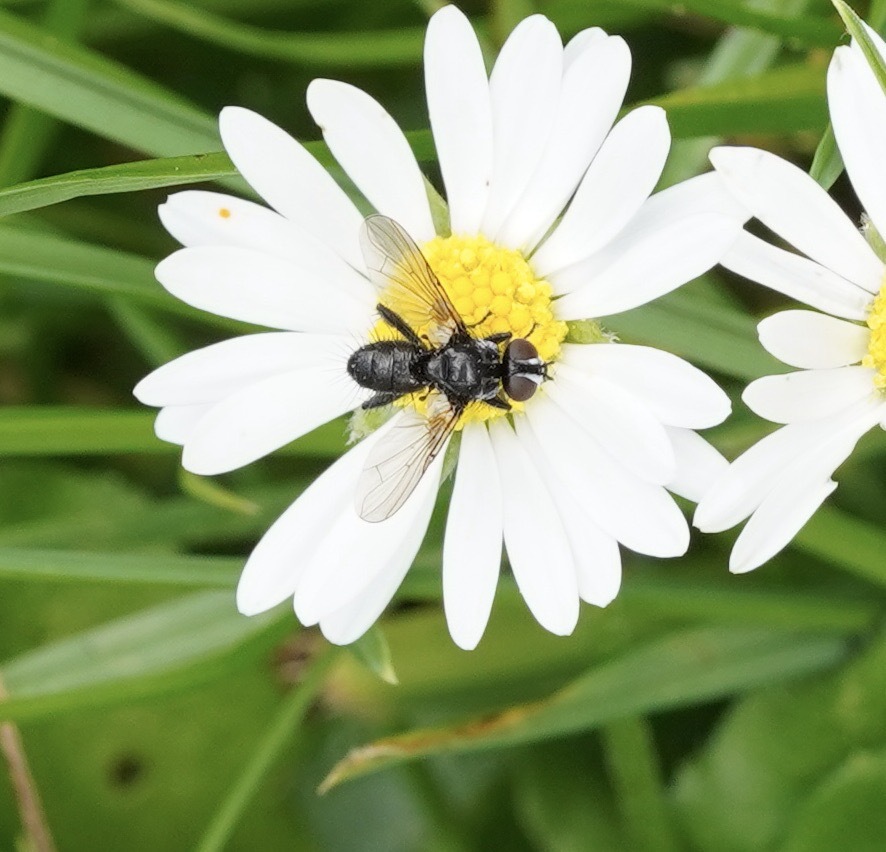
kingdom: Animalia
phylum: Arthropoda
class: Insecta
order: Diptera
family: Tachinidae
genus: Phania
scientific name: Phania funesta
